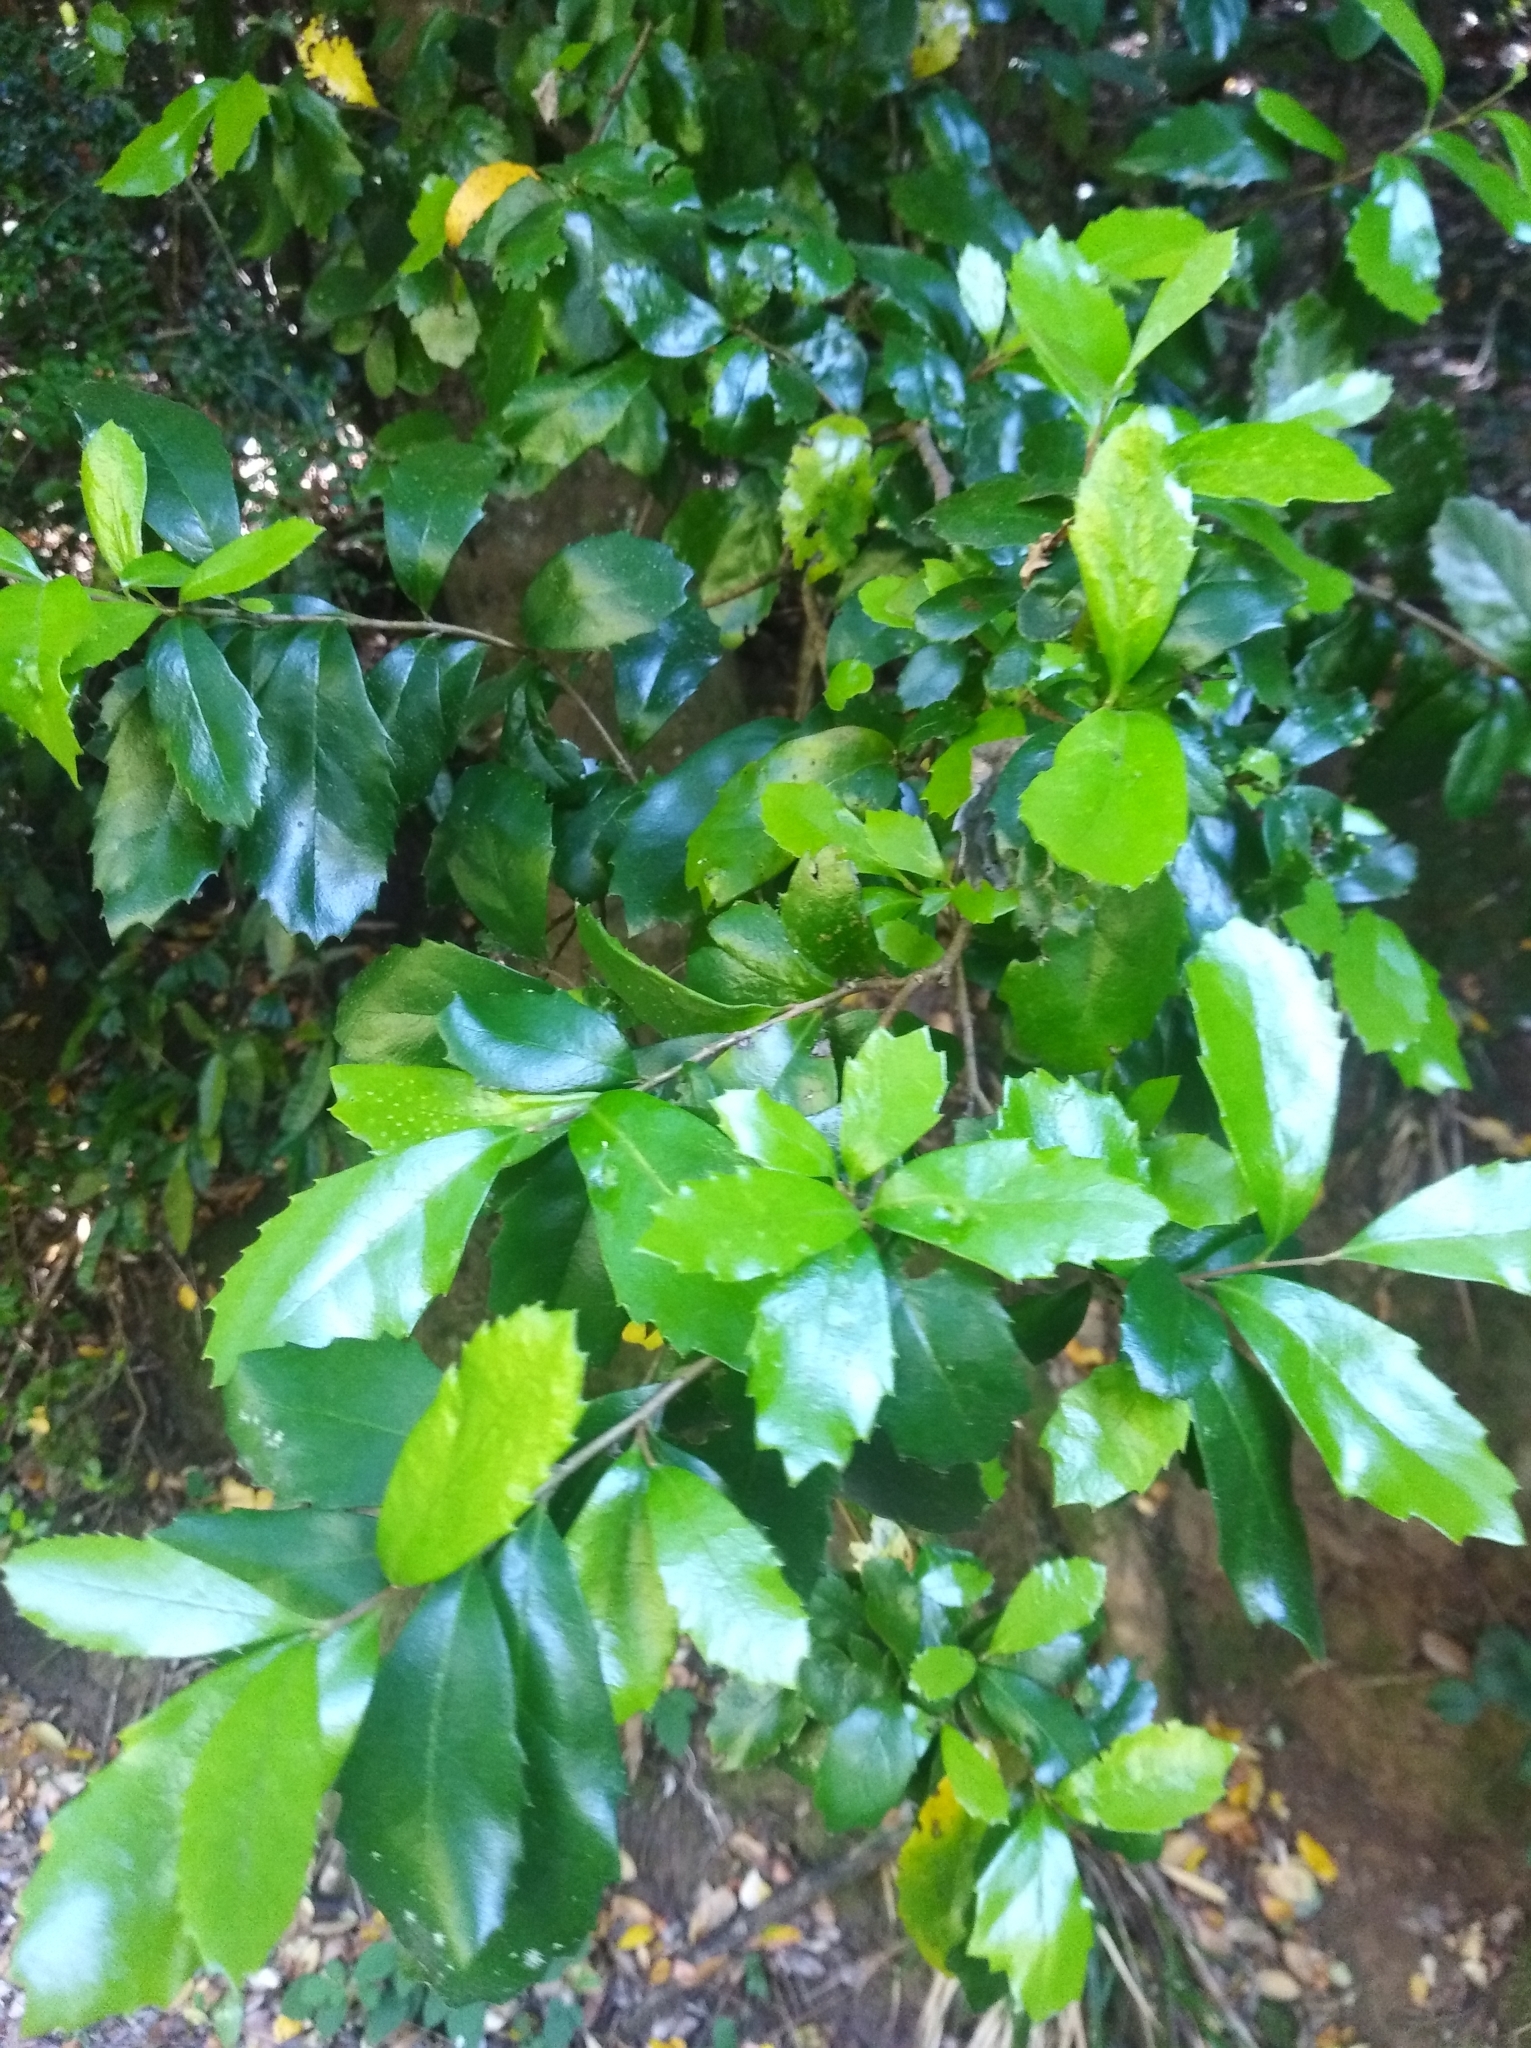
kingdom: Plantae
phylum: Tracheophyta
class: Magnoliopsida
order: Proteales
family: Proteaceae
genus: Lomatia
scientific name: Lomatia dentata
